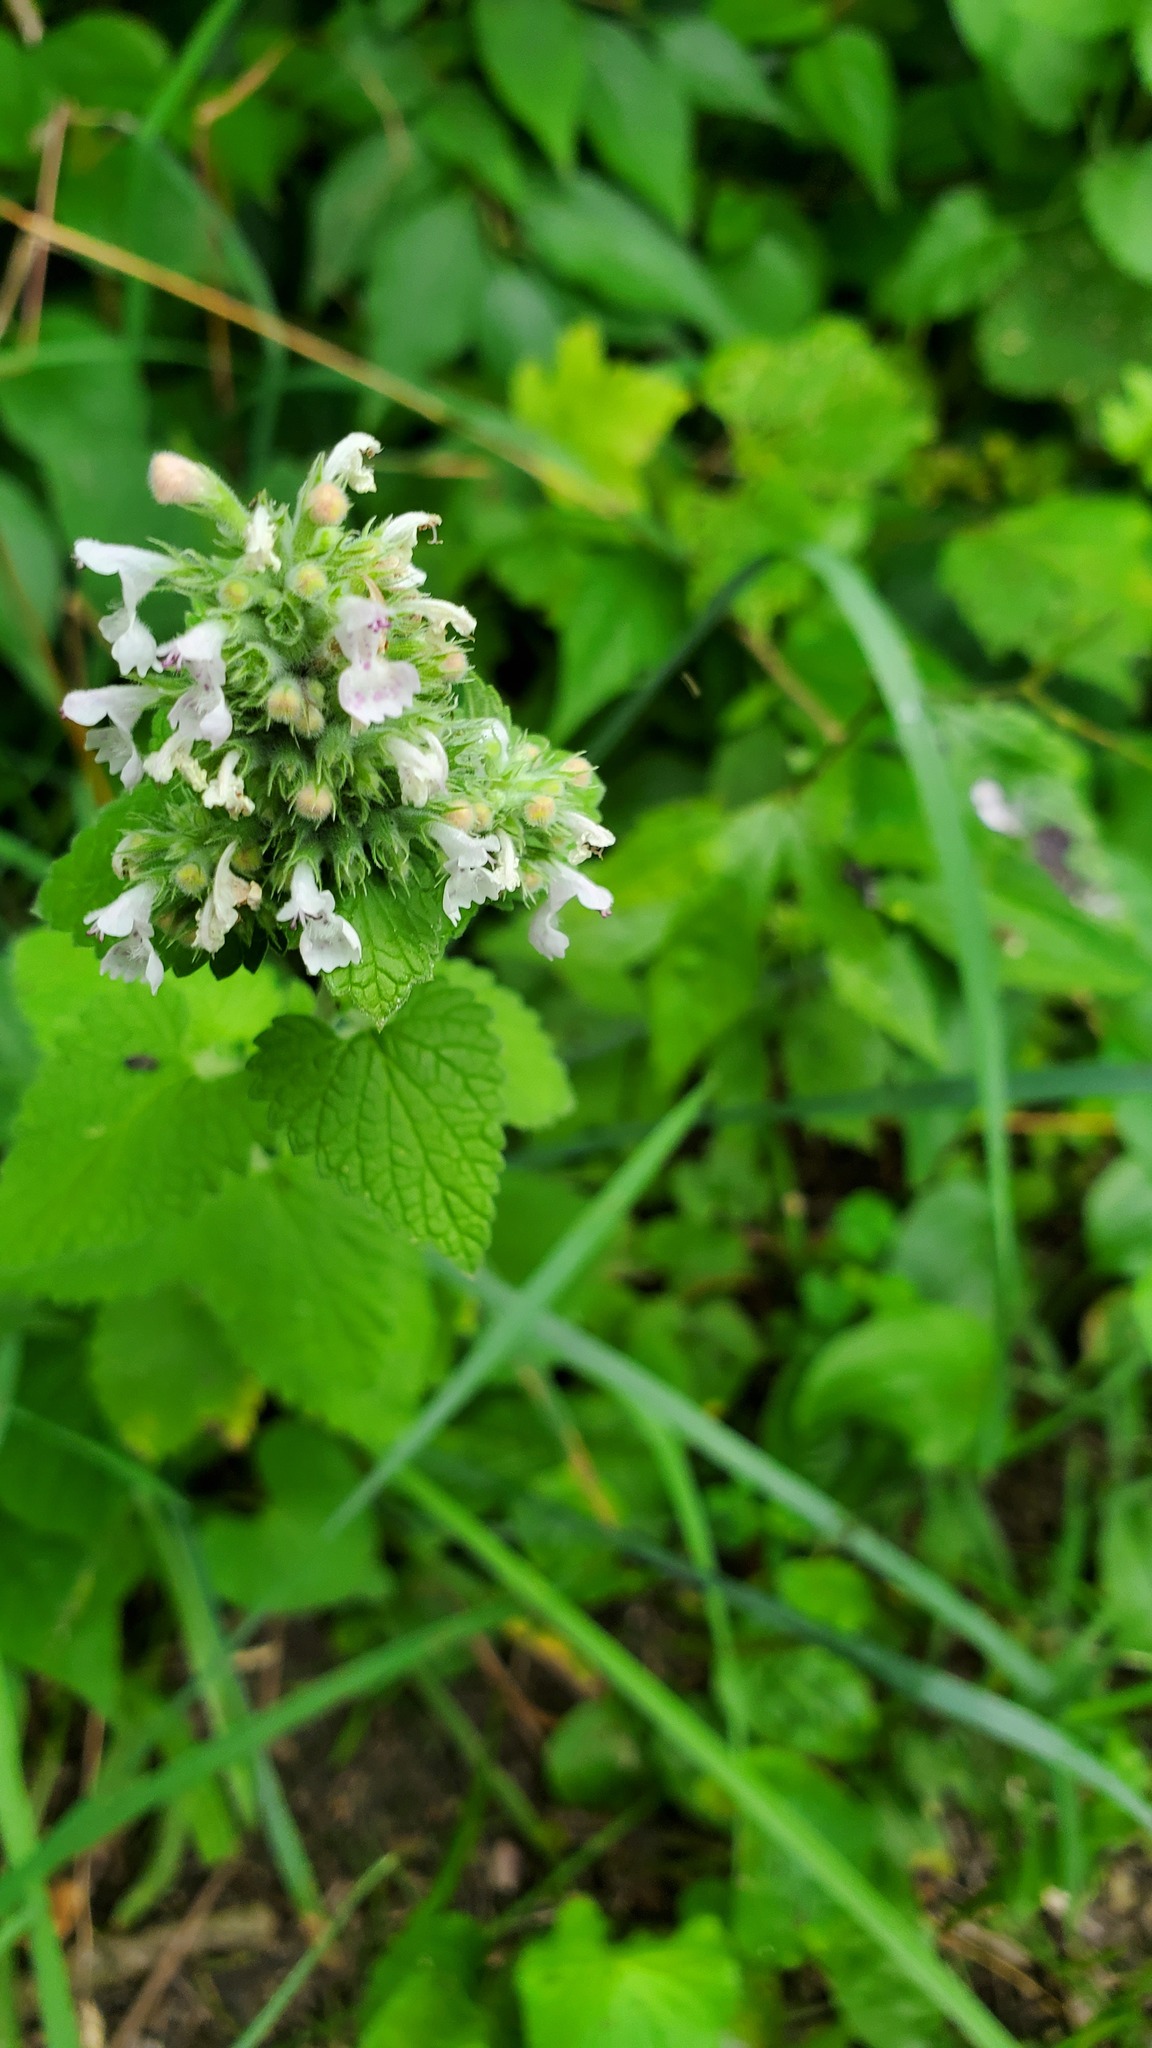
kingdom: Plantae
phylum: Tracheophyta
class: Magnoliopsida
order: Lamiales
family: Lamiaceae
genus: Nepeta
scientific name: Nepeta cataria
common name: Catnip
